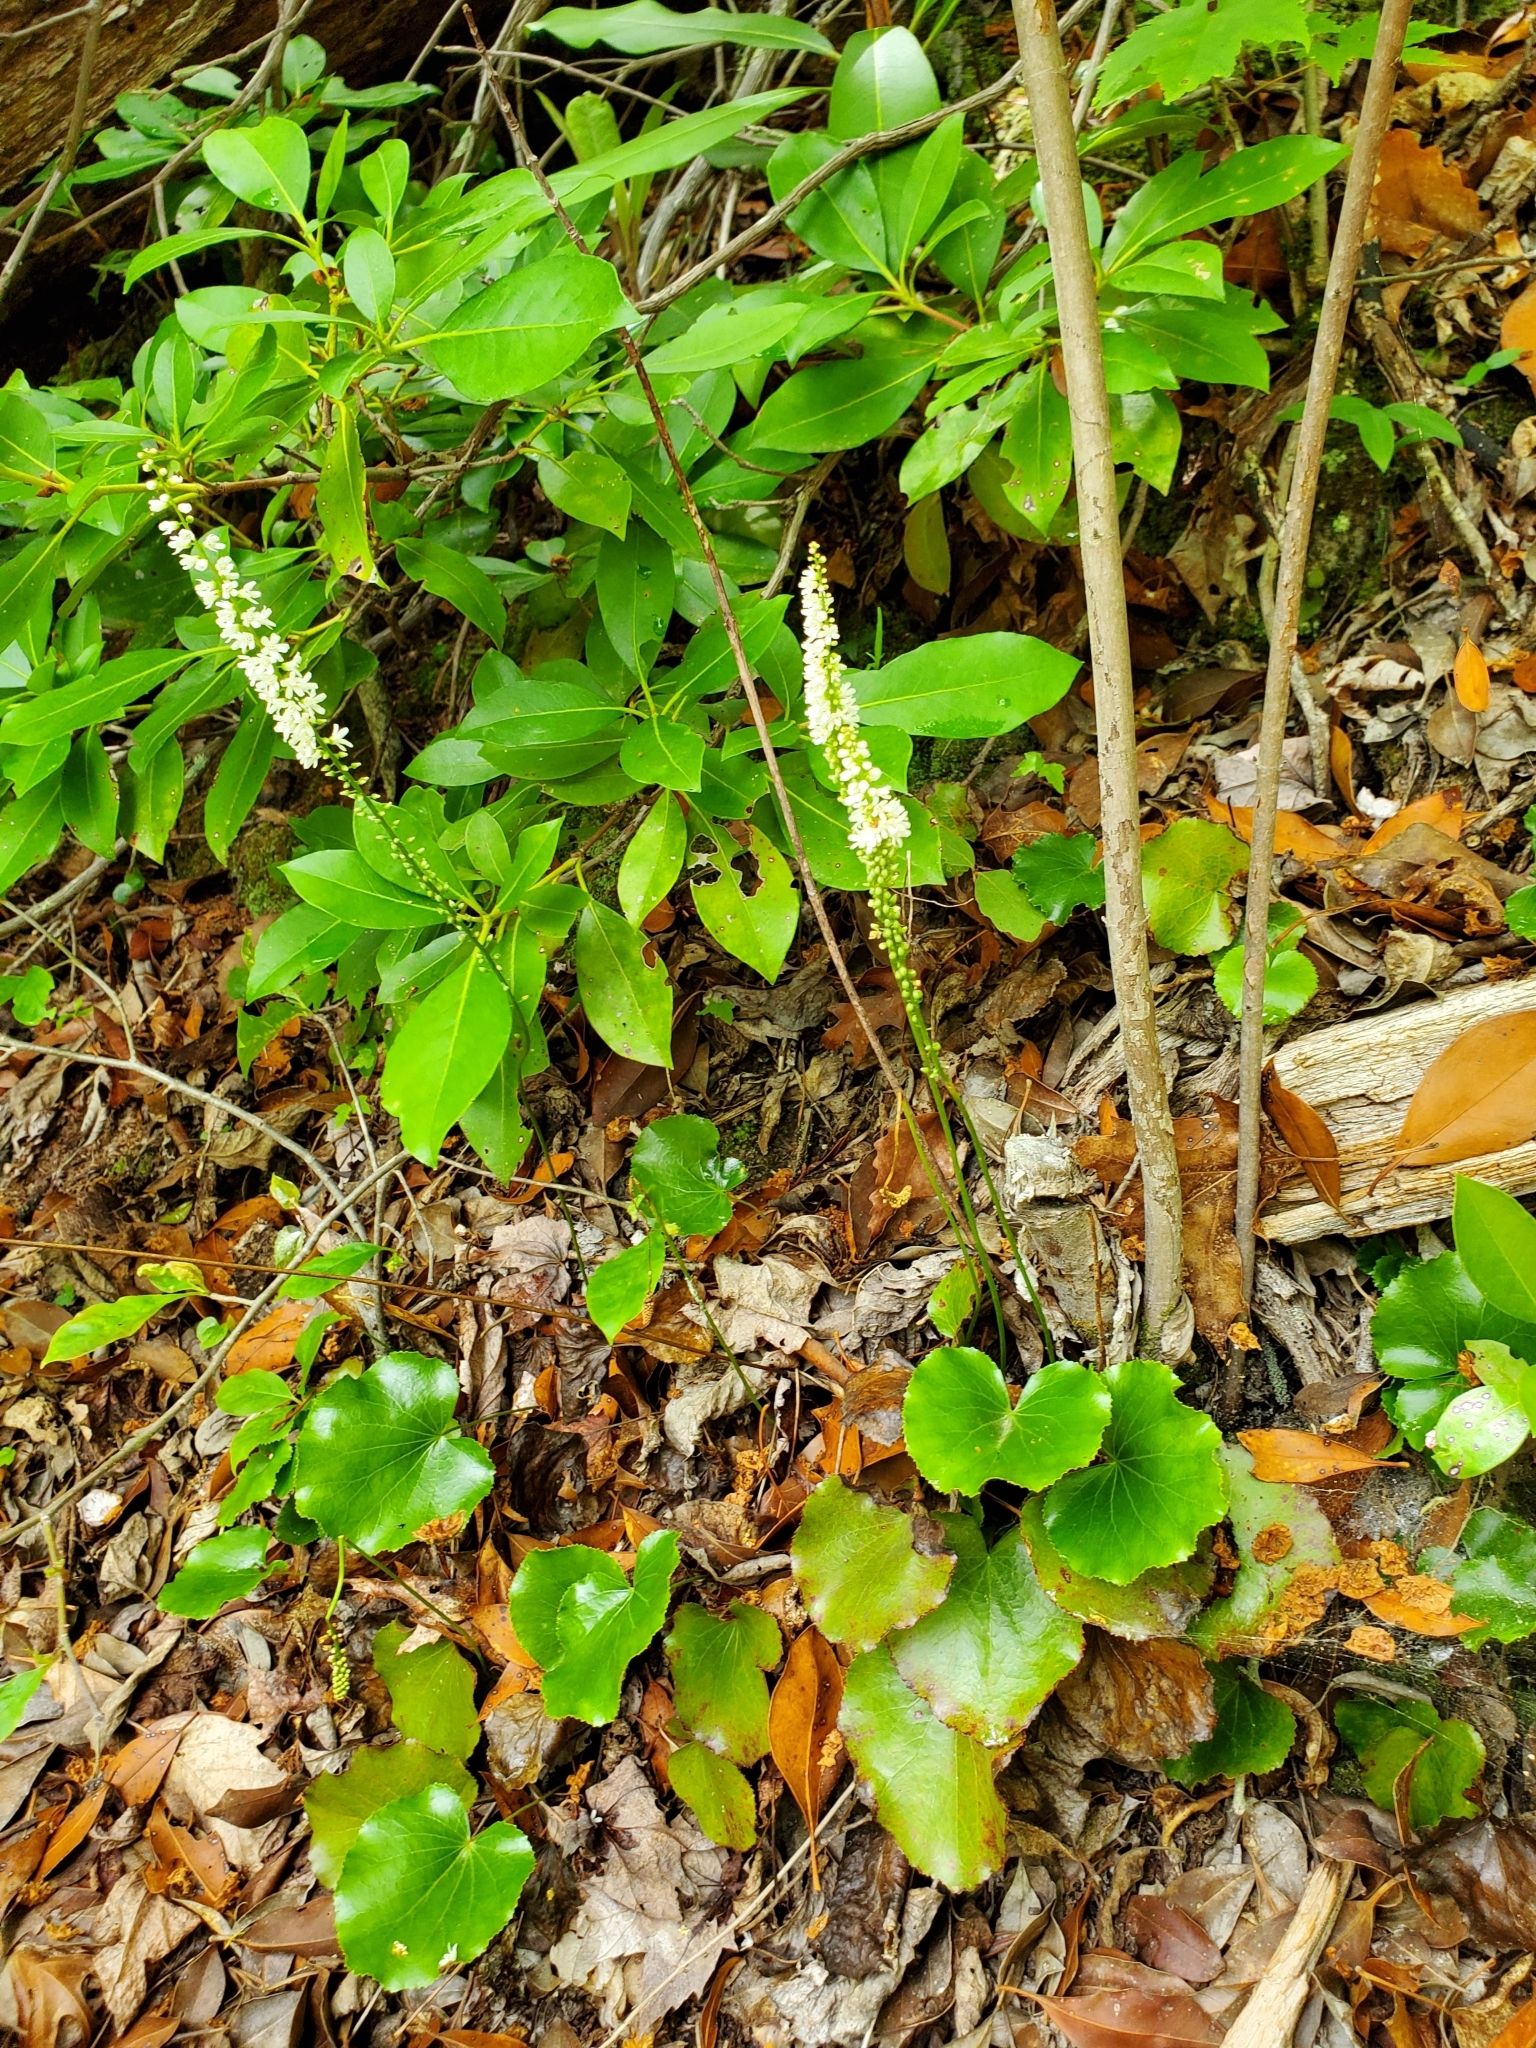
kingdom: Plantae
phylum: Tracheophyta
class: Magnoliopsida
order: Ericales
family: Diapensiaceae
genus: Galax
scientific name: Galax urceolata
